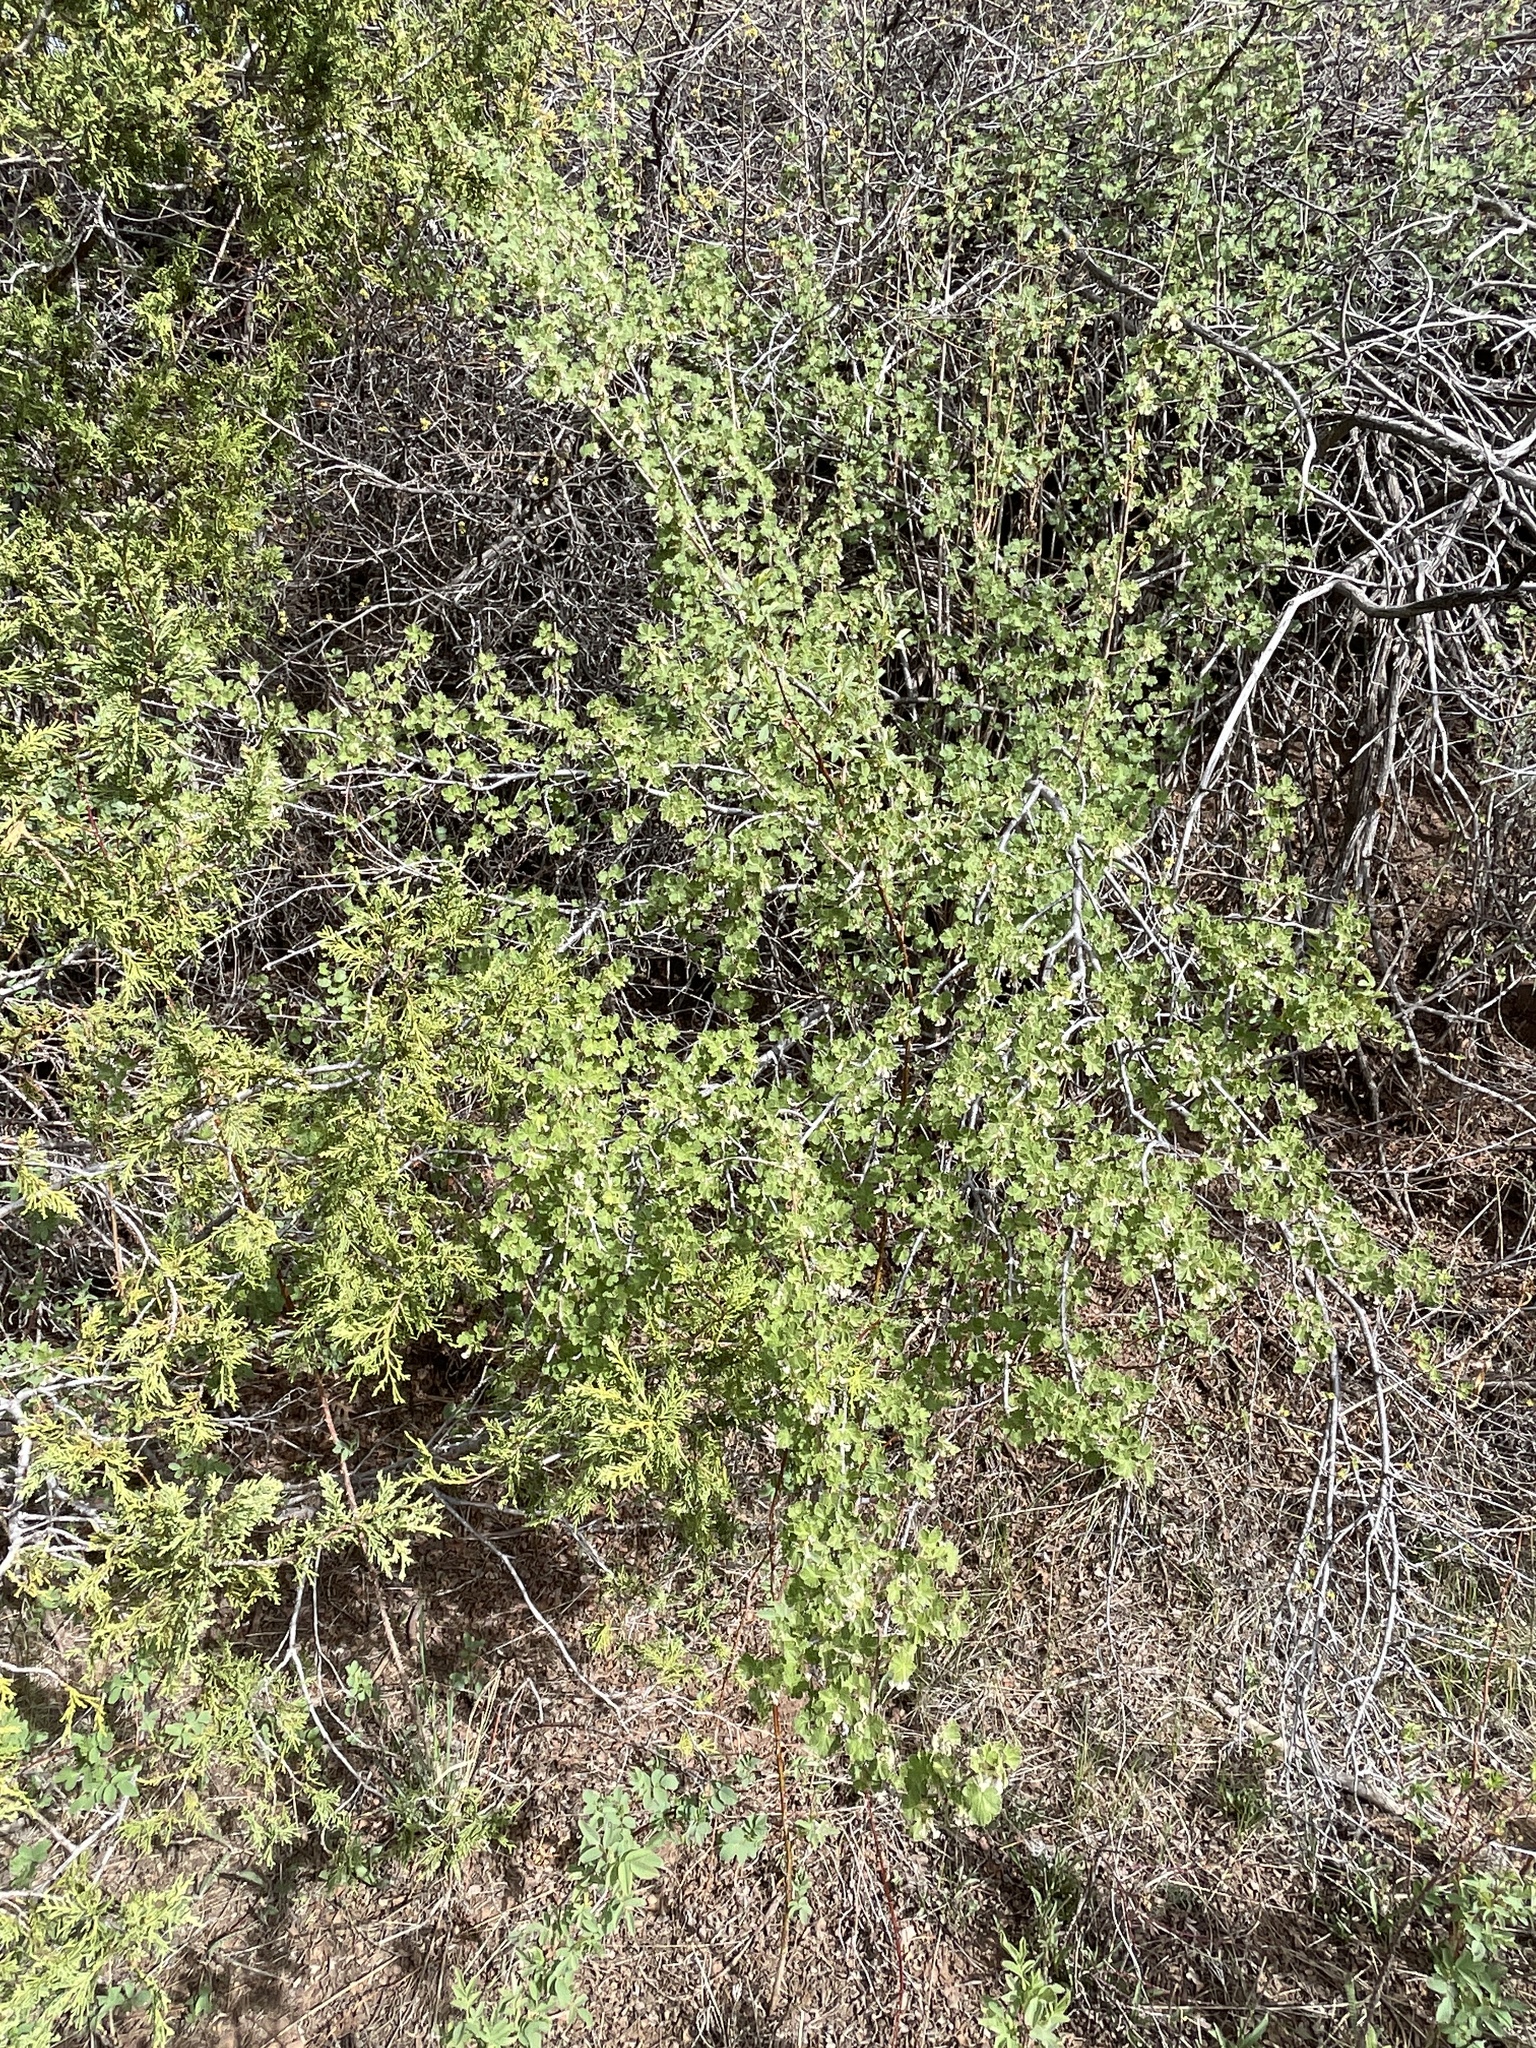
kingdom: Plantae
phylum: Tracheophyta
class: Magnoliopsida
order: Saxifragales
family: Grossulariaceae
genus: Ribes
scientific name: Ribes cereum
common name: Wax currant
